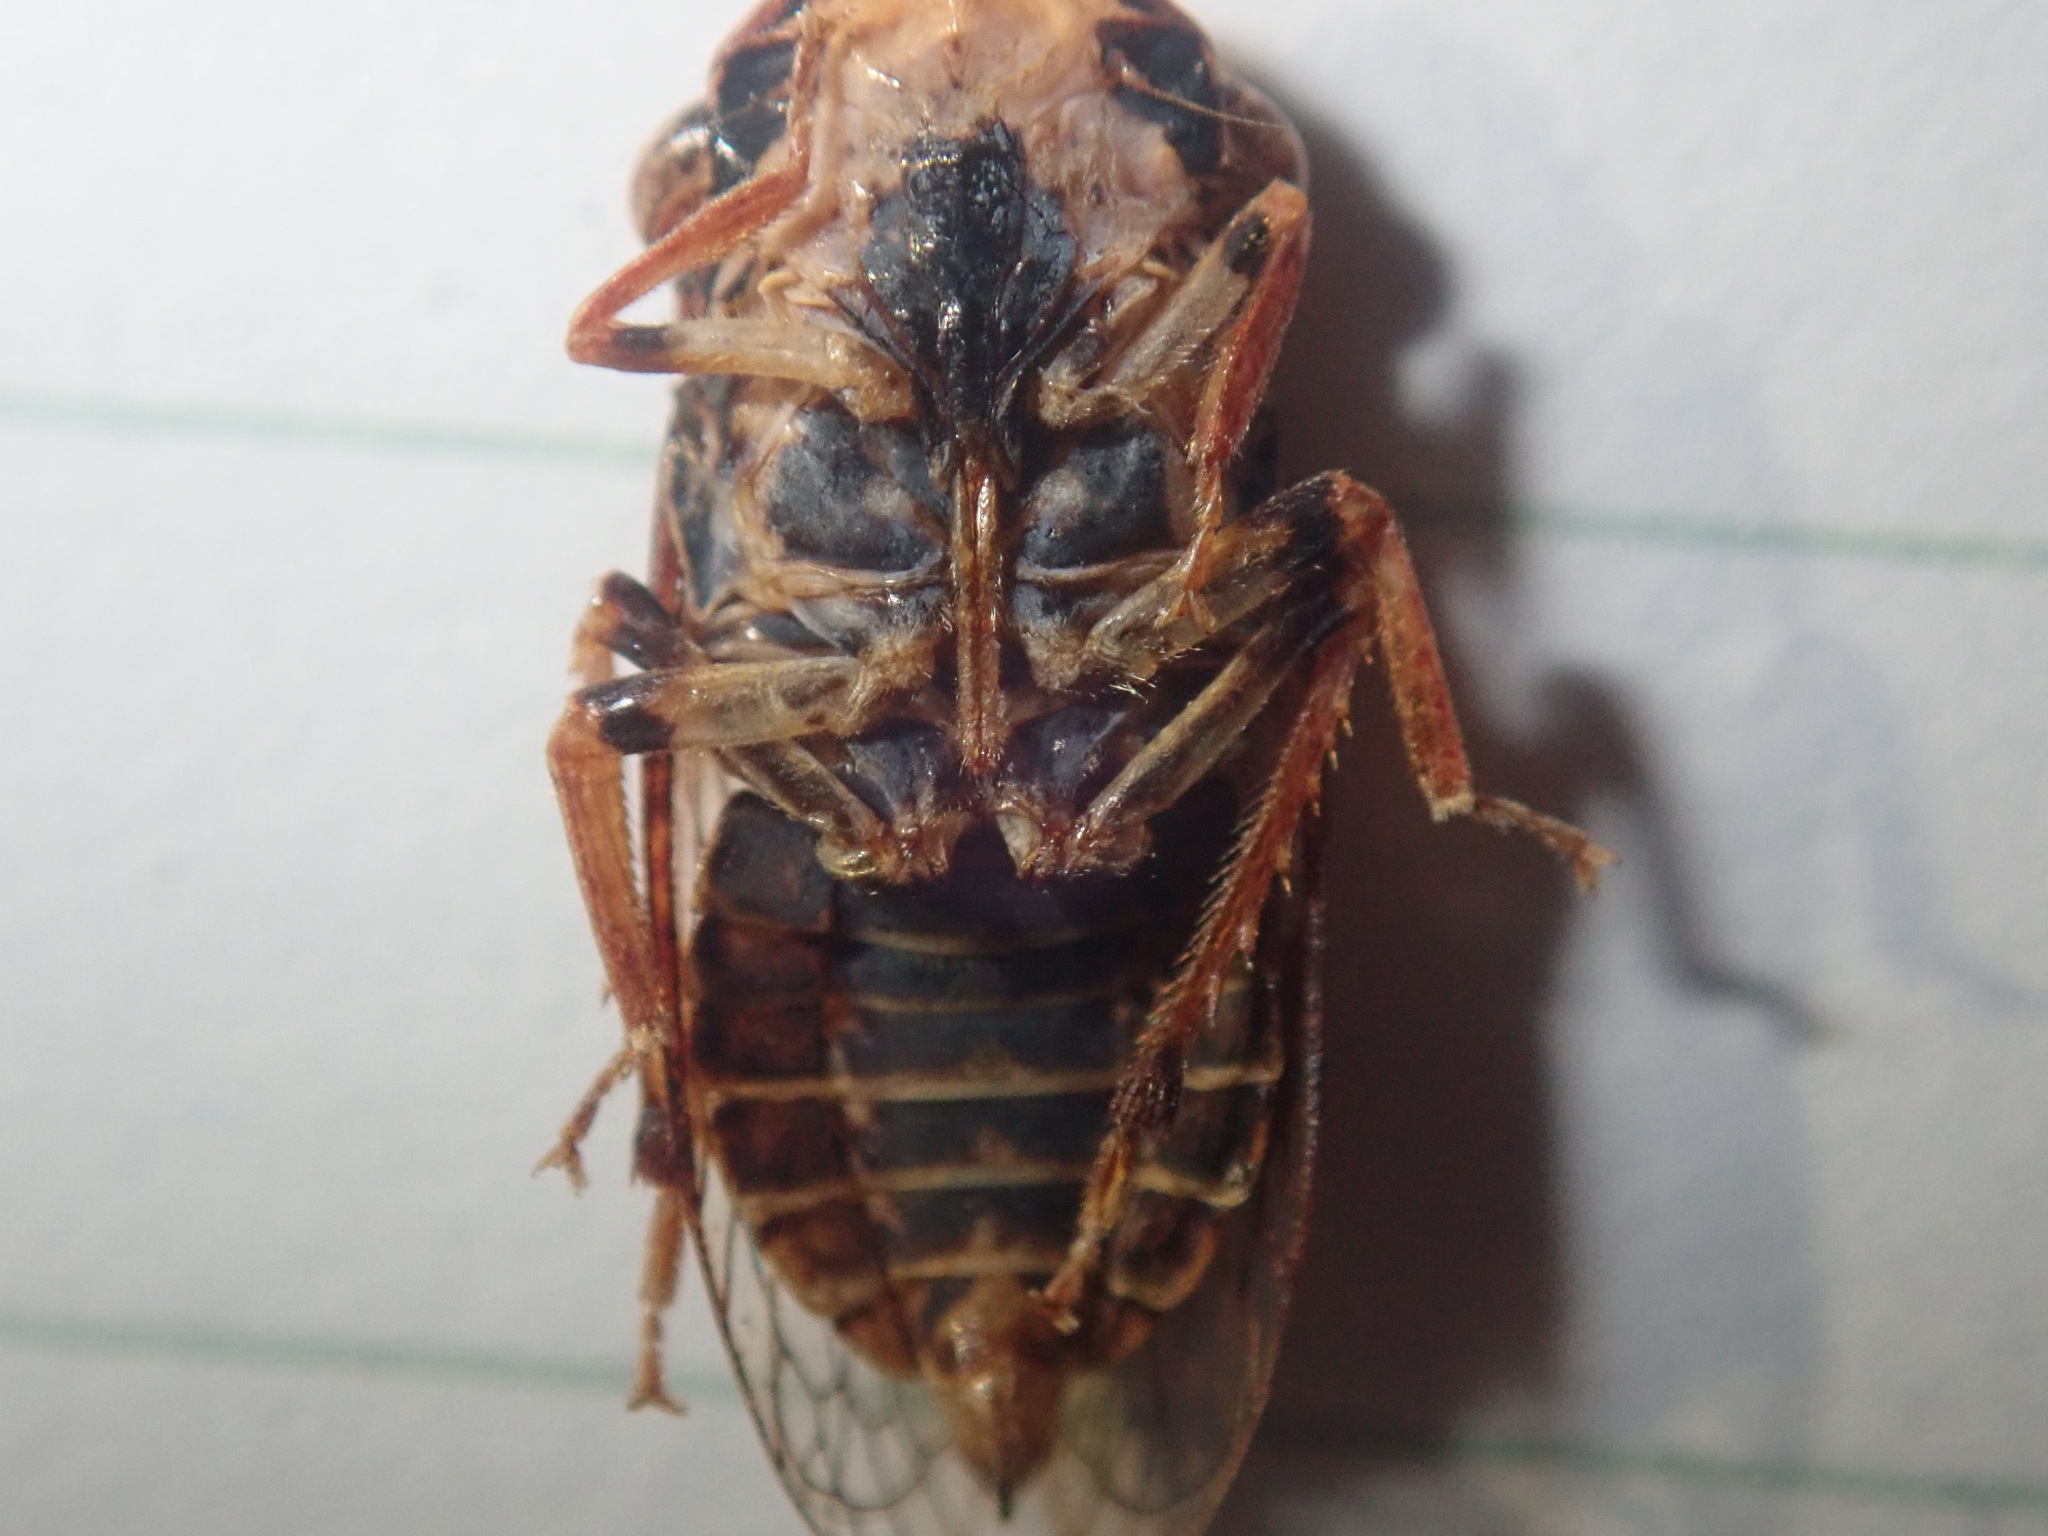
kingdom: Animalia
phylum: Arthropoda
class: Insecta
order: Hemiptera
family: Cicadellidae
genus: Stenocotis
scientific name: Stenocotis depressa
